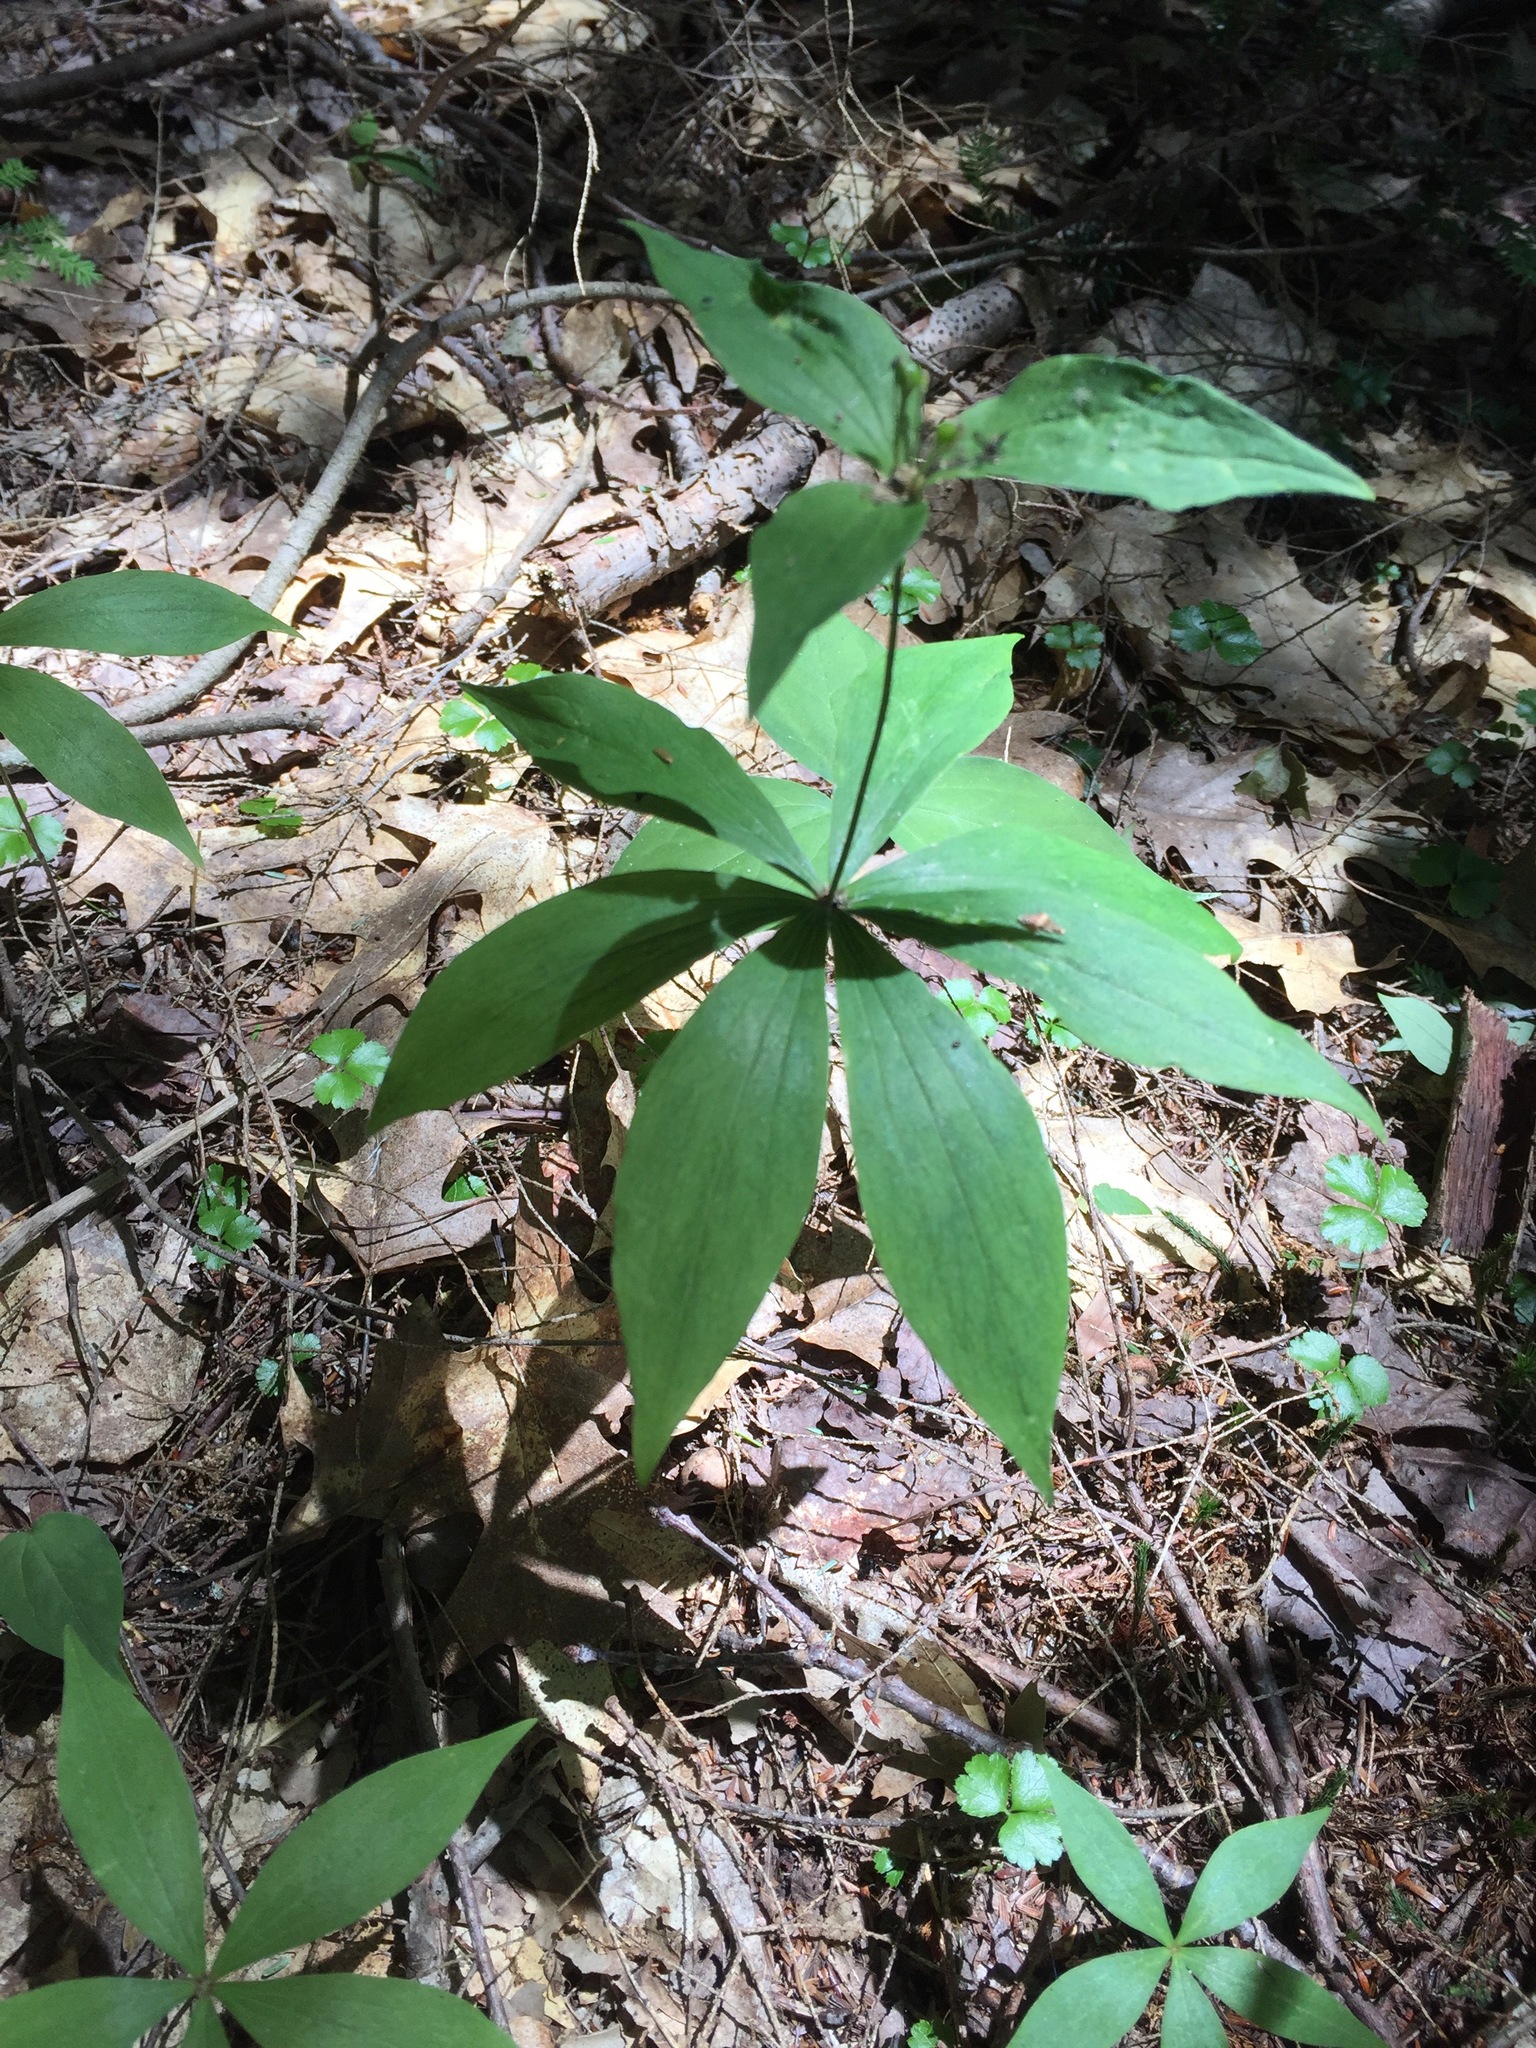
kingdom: Plantae
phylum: Tracheophyta
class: Liliopsida
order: Liliales
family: Liliaceae
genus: Medeola
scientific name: Medeola virginiana
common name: Indian cucumber-root
